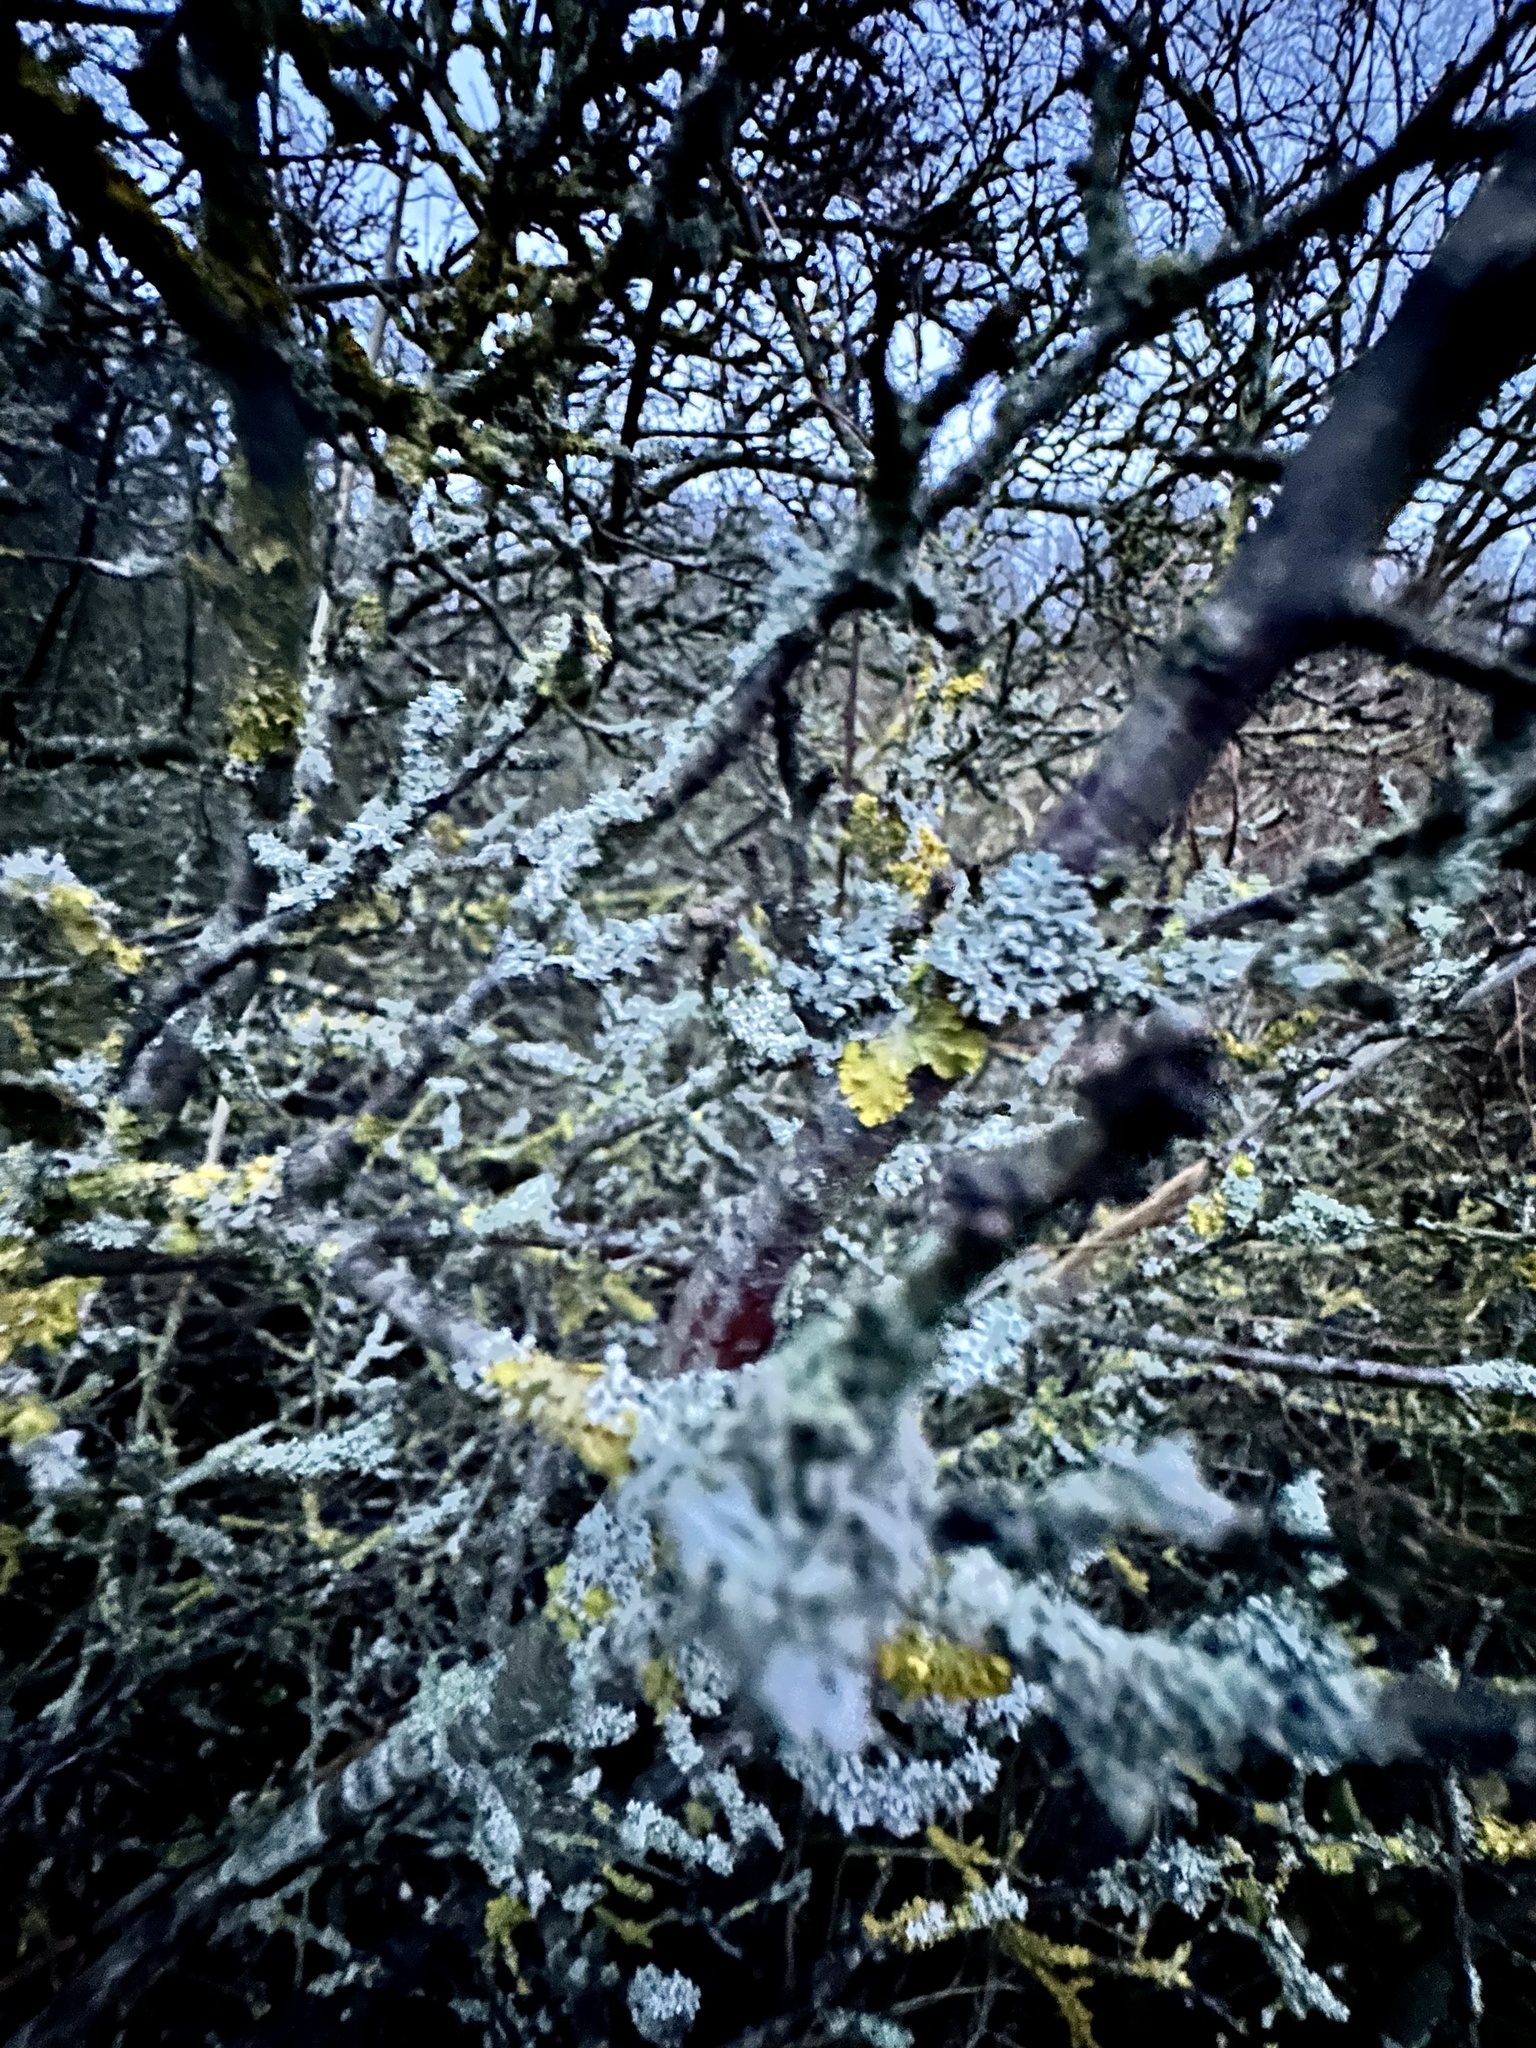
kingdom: Fungi
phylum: Ascomycota
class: Lecanoromycetes
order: Caliciales
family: Physciaceae
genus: Physcia
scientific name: Physcia adscendens
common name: Hooded rosette lichen
